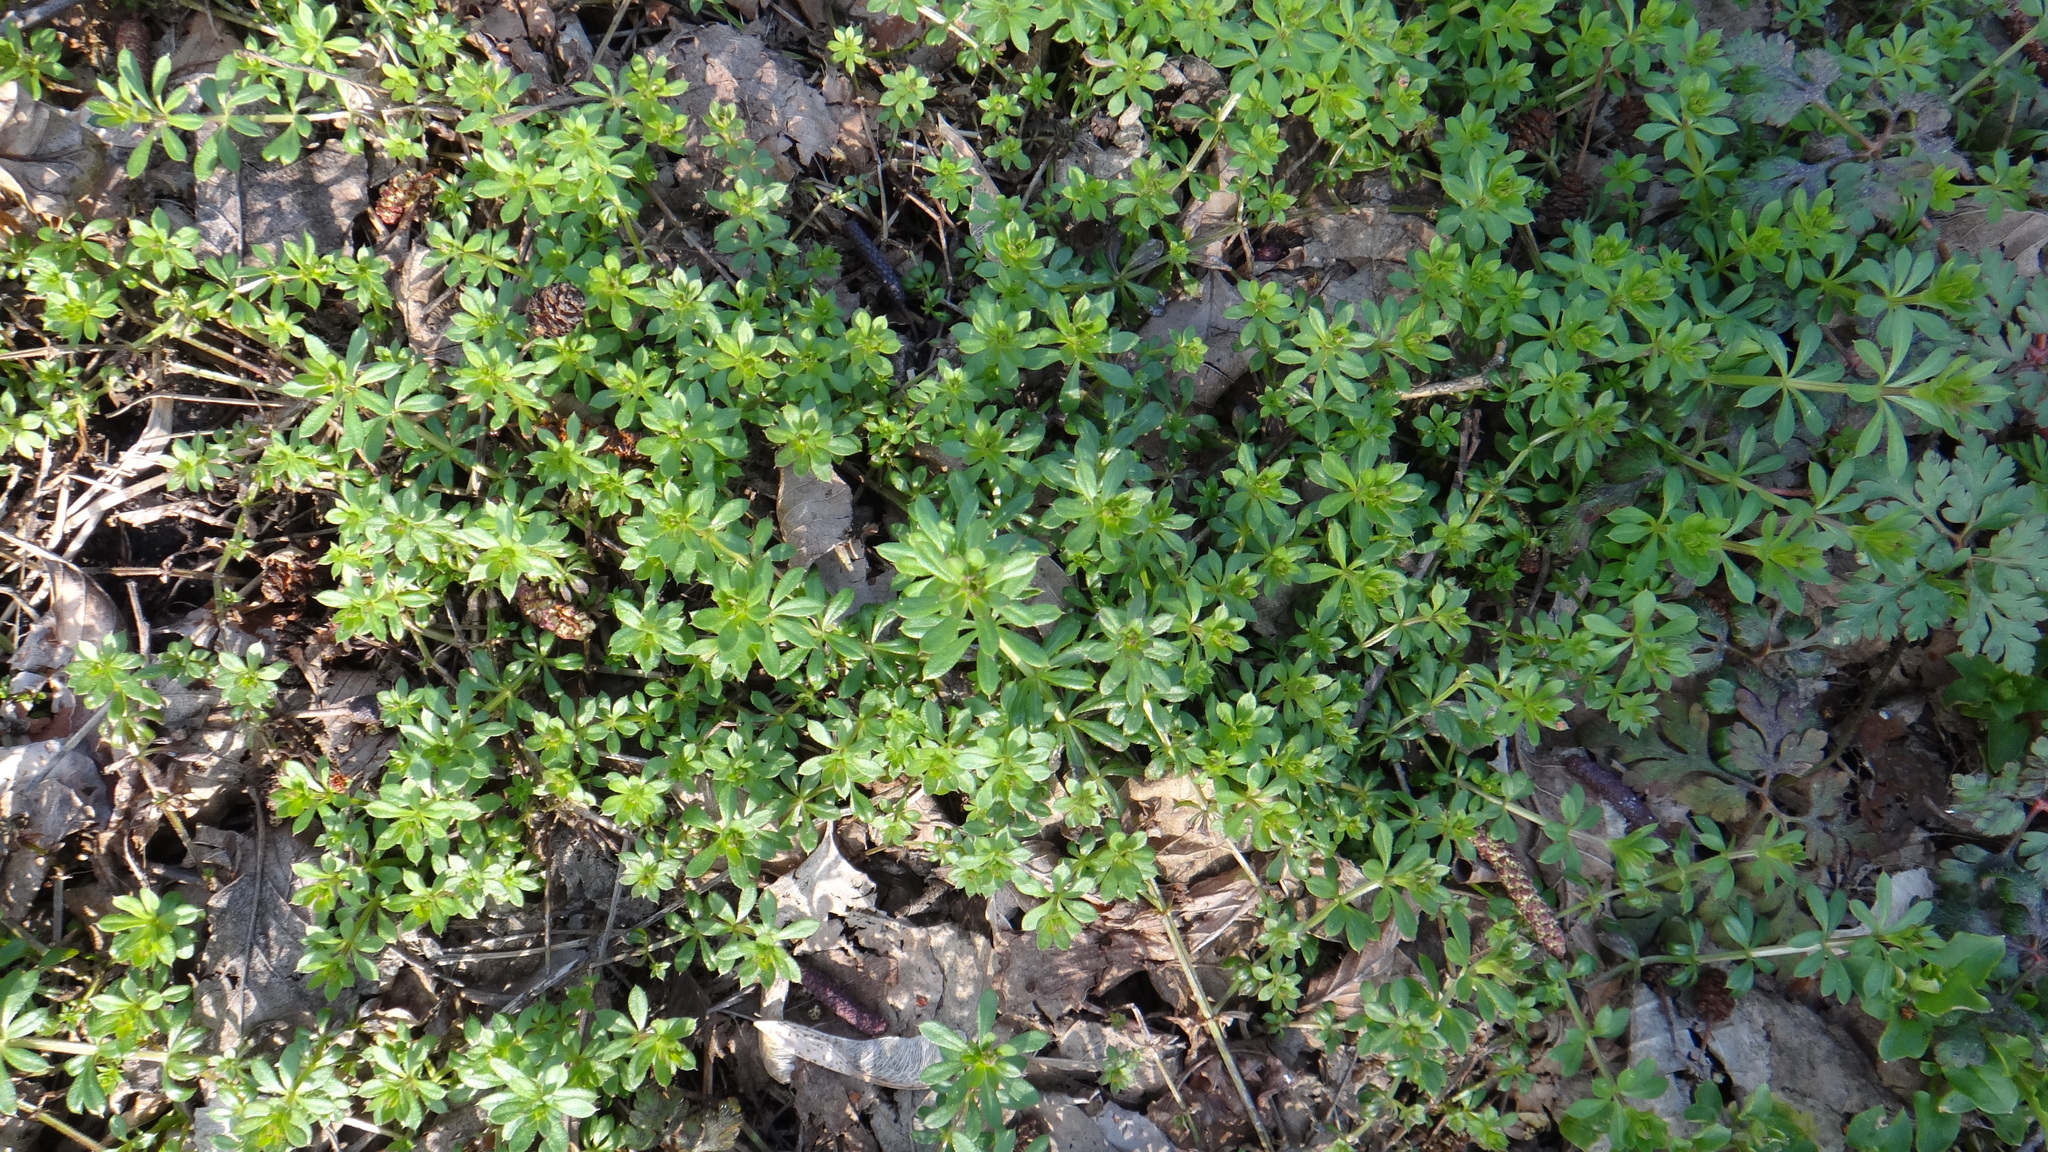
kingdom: Plantae
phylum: Tracheophyta
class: Magnoliopsida
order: Gentianales
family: Rubiaceae
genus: Galium
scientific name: Galium aparine
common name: Cleavers
